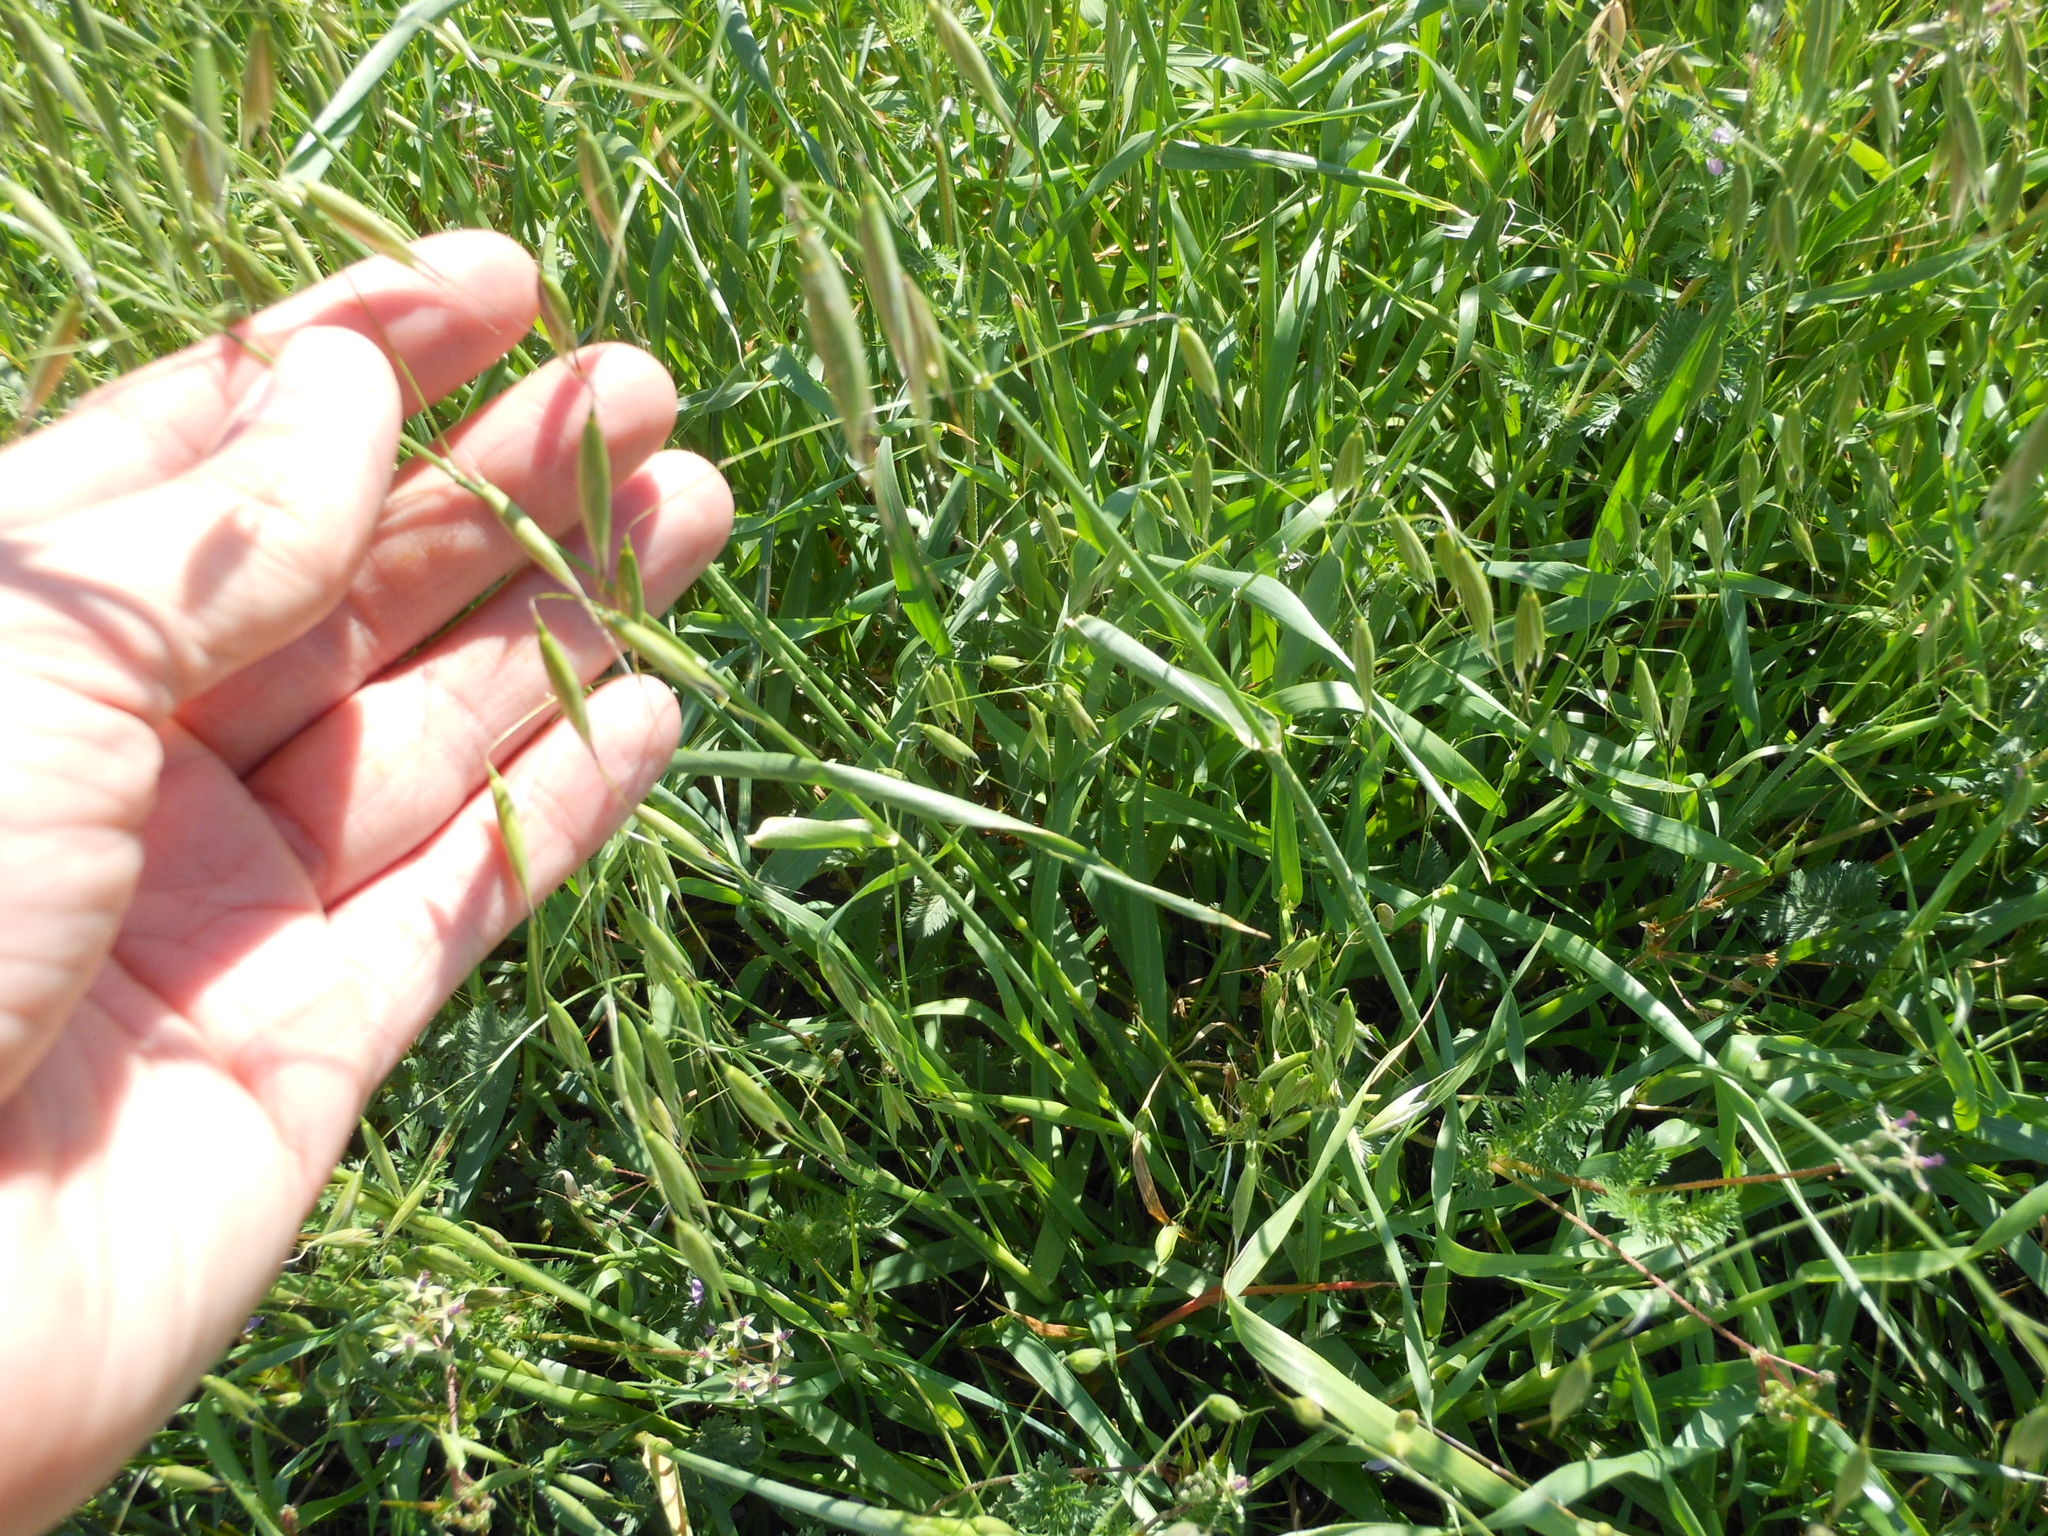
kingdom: Plantae
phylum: Tracheophyta
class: Liliopsida
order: Poales
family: Poaceae
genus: Avena
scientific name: Avena sativa
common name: Oat
